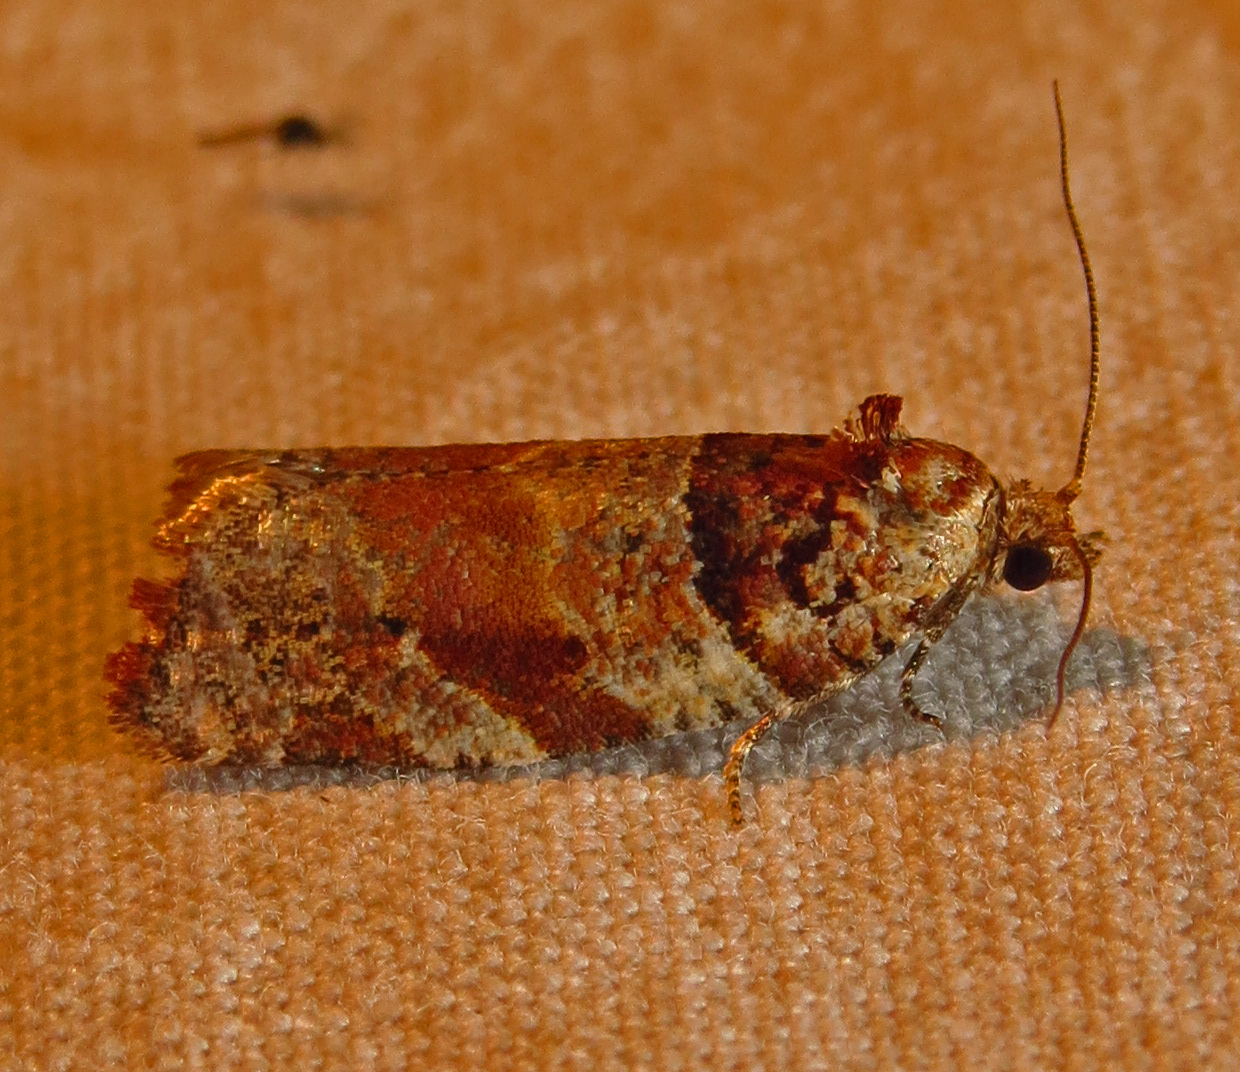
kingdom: Animalia
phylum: Arthropoda
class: Insecta
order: Lepidoptera
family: Tortricidae
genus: Argyrotaenia
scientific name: Argyrotaenia kimballi
